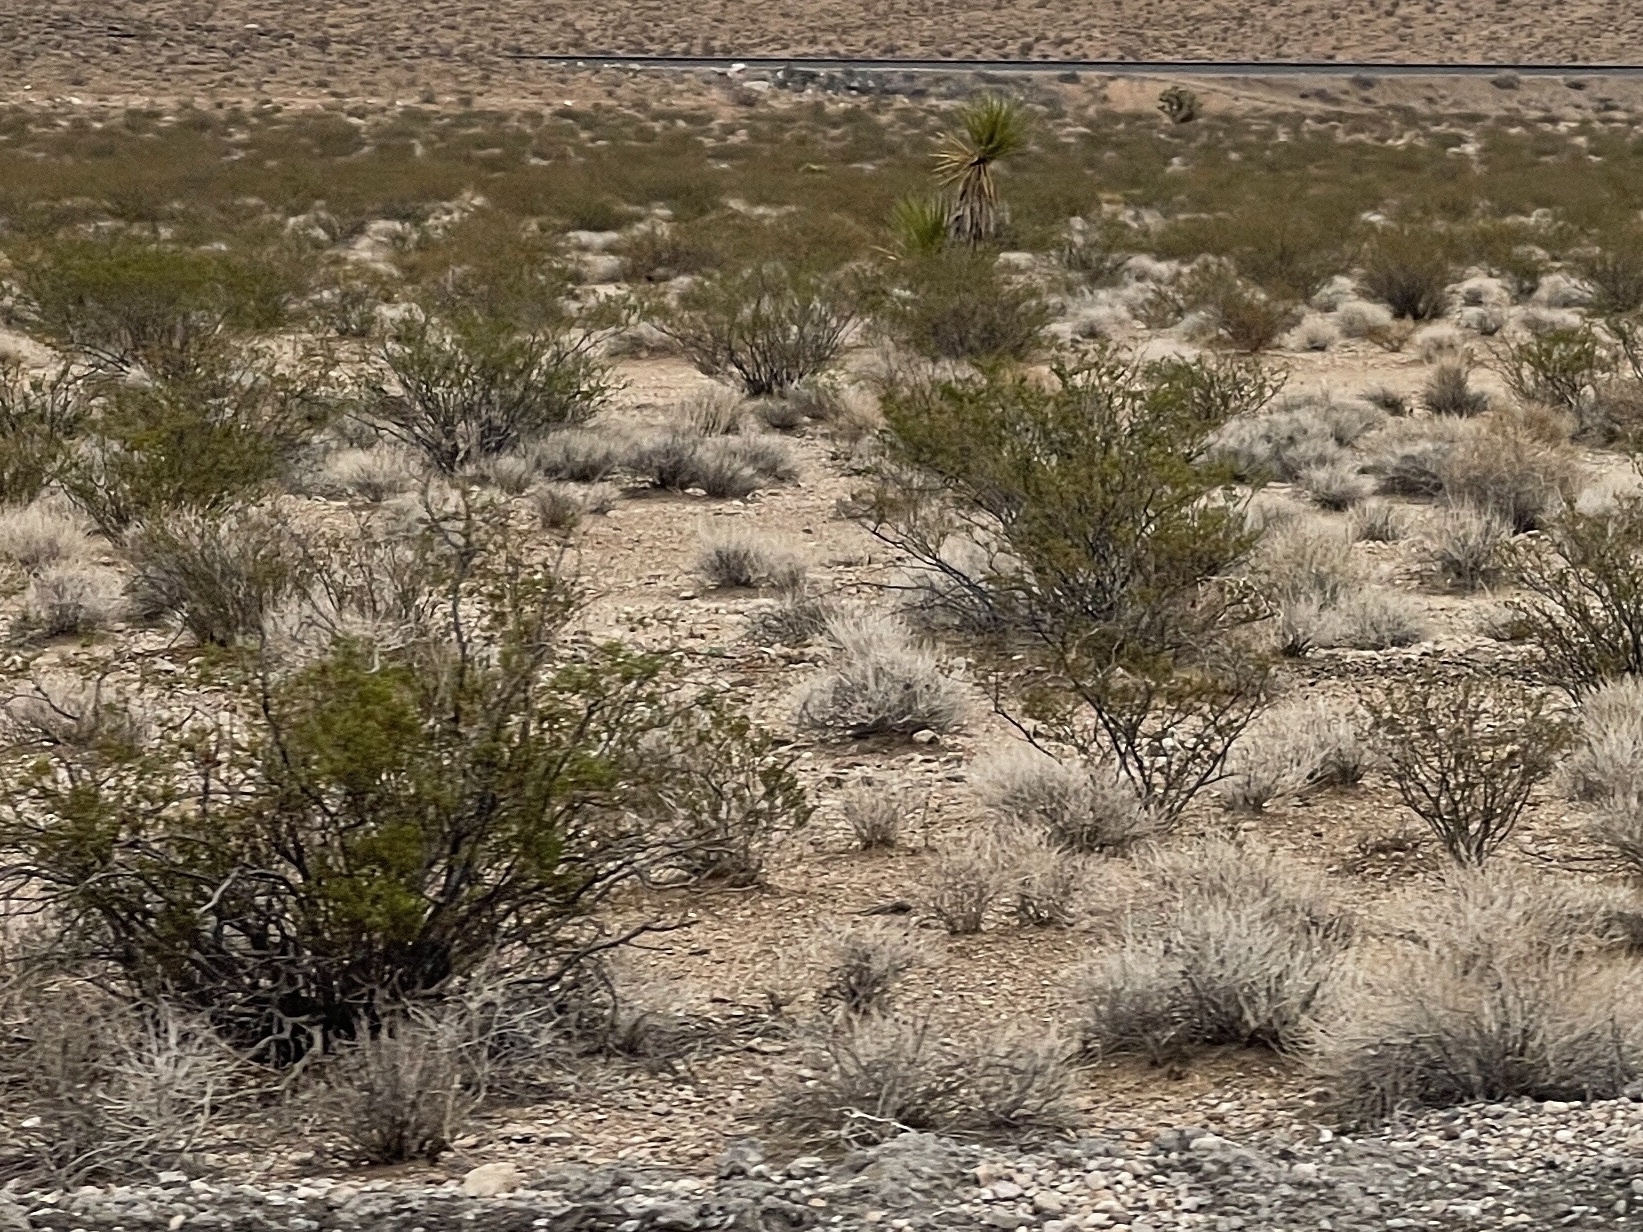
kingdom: Plantae
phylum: Tracheophyta
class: Magnoliopsida
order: Zygophyllales
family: Zygophyllaceae
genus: Larrea
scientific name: Larrea tridentata
